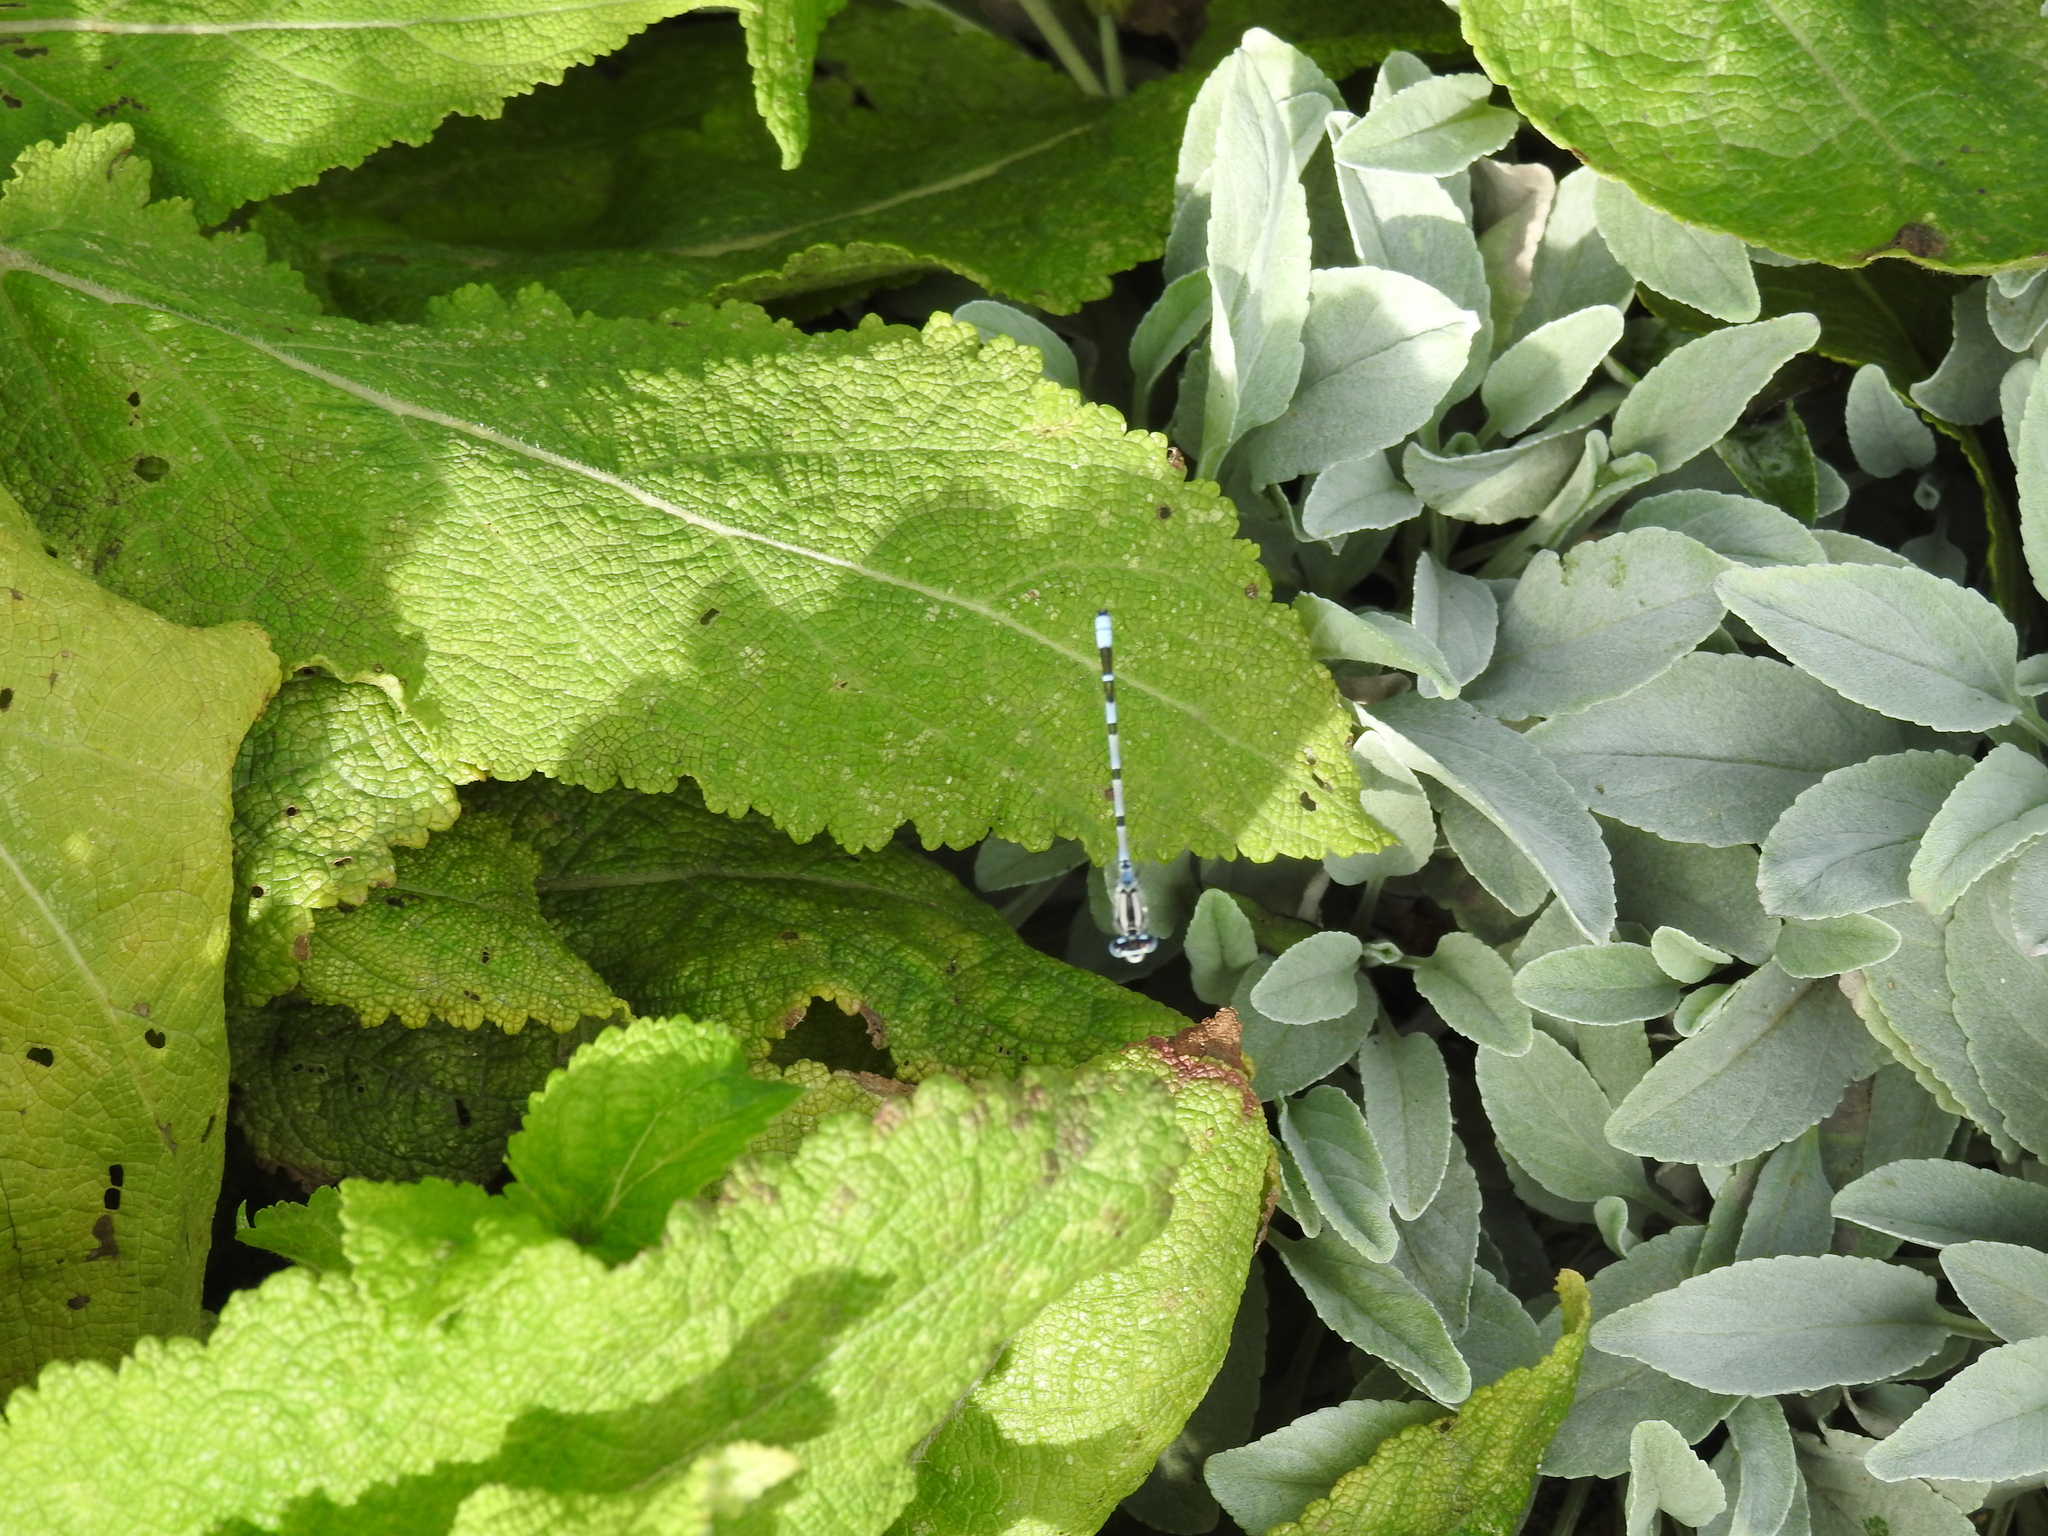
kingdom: Animalia
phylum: Arthropoda
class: Insecta
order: Odonata
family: Coenagrionidae
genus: Enallagma
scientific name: Enallagma cyathigerum
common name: Common blue damselfly
